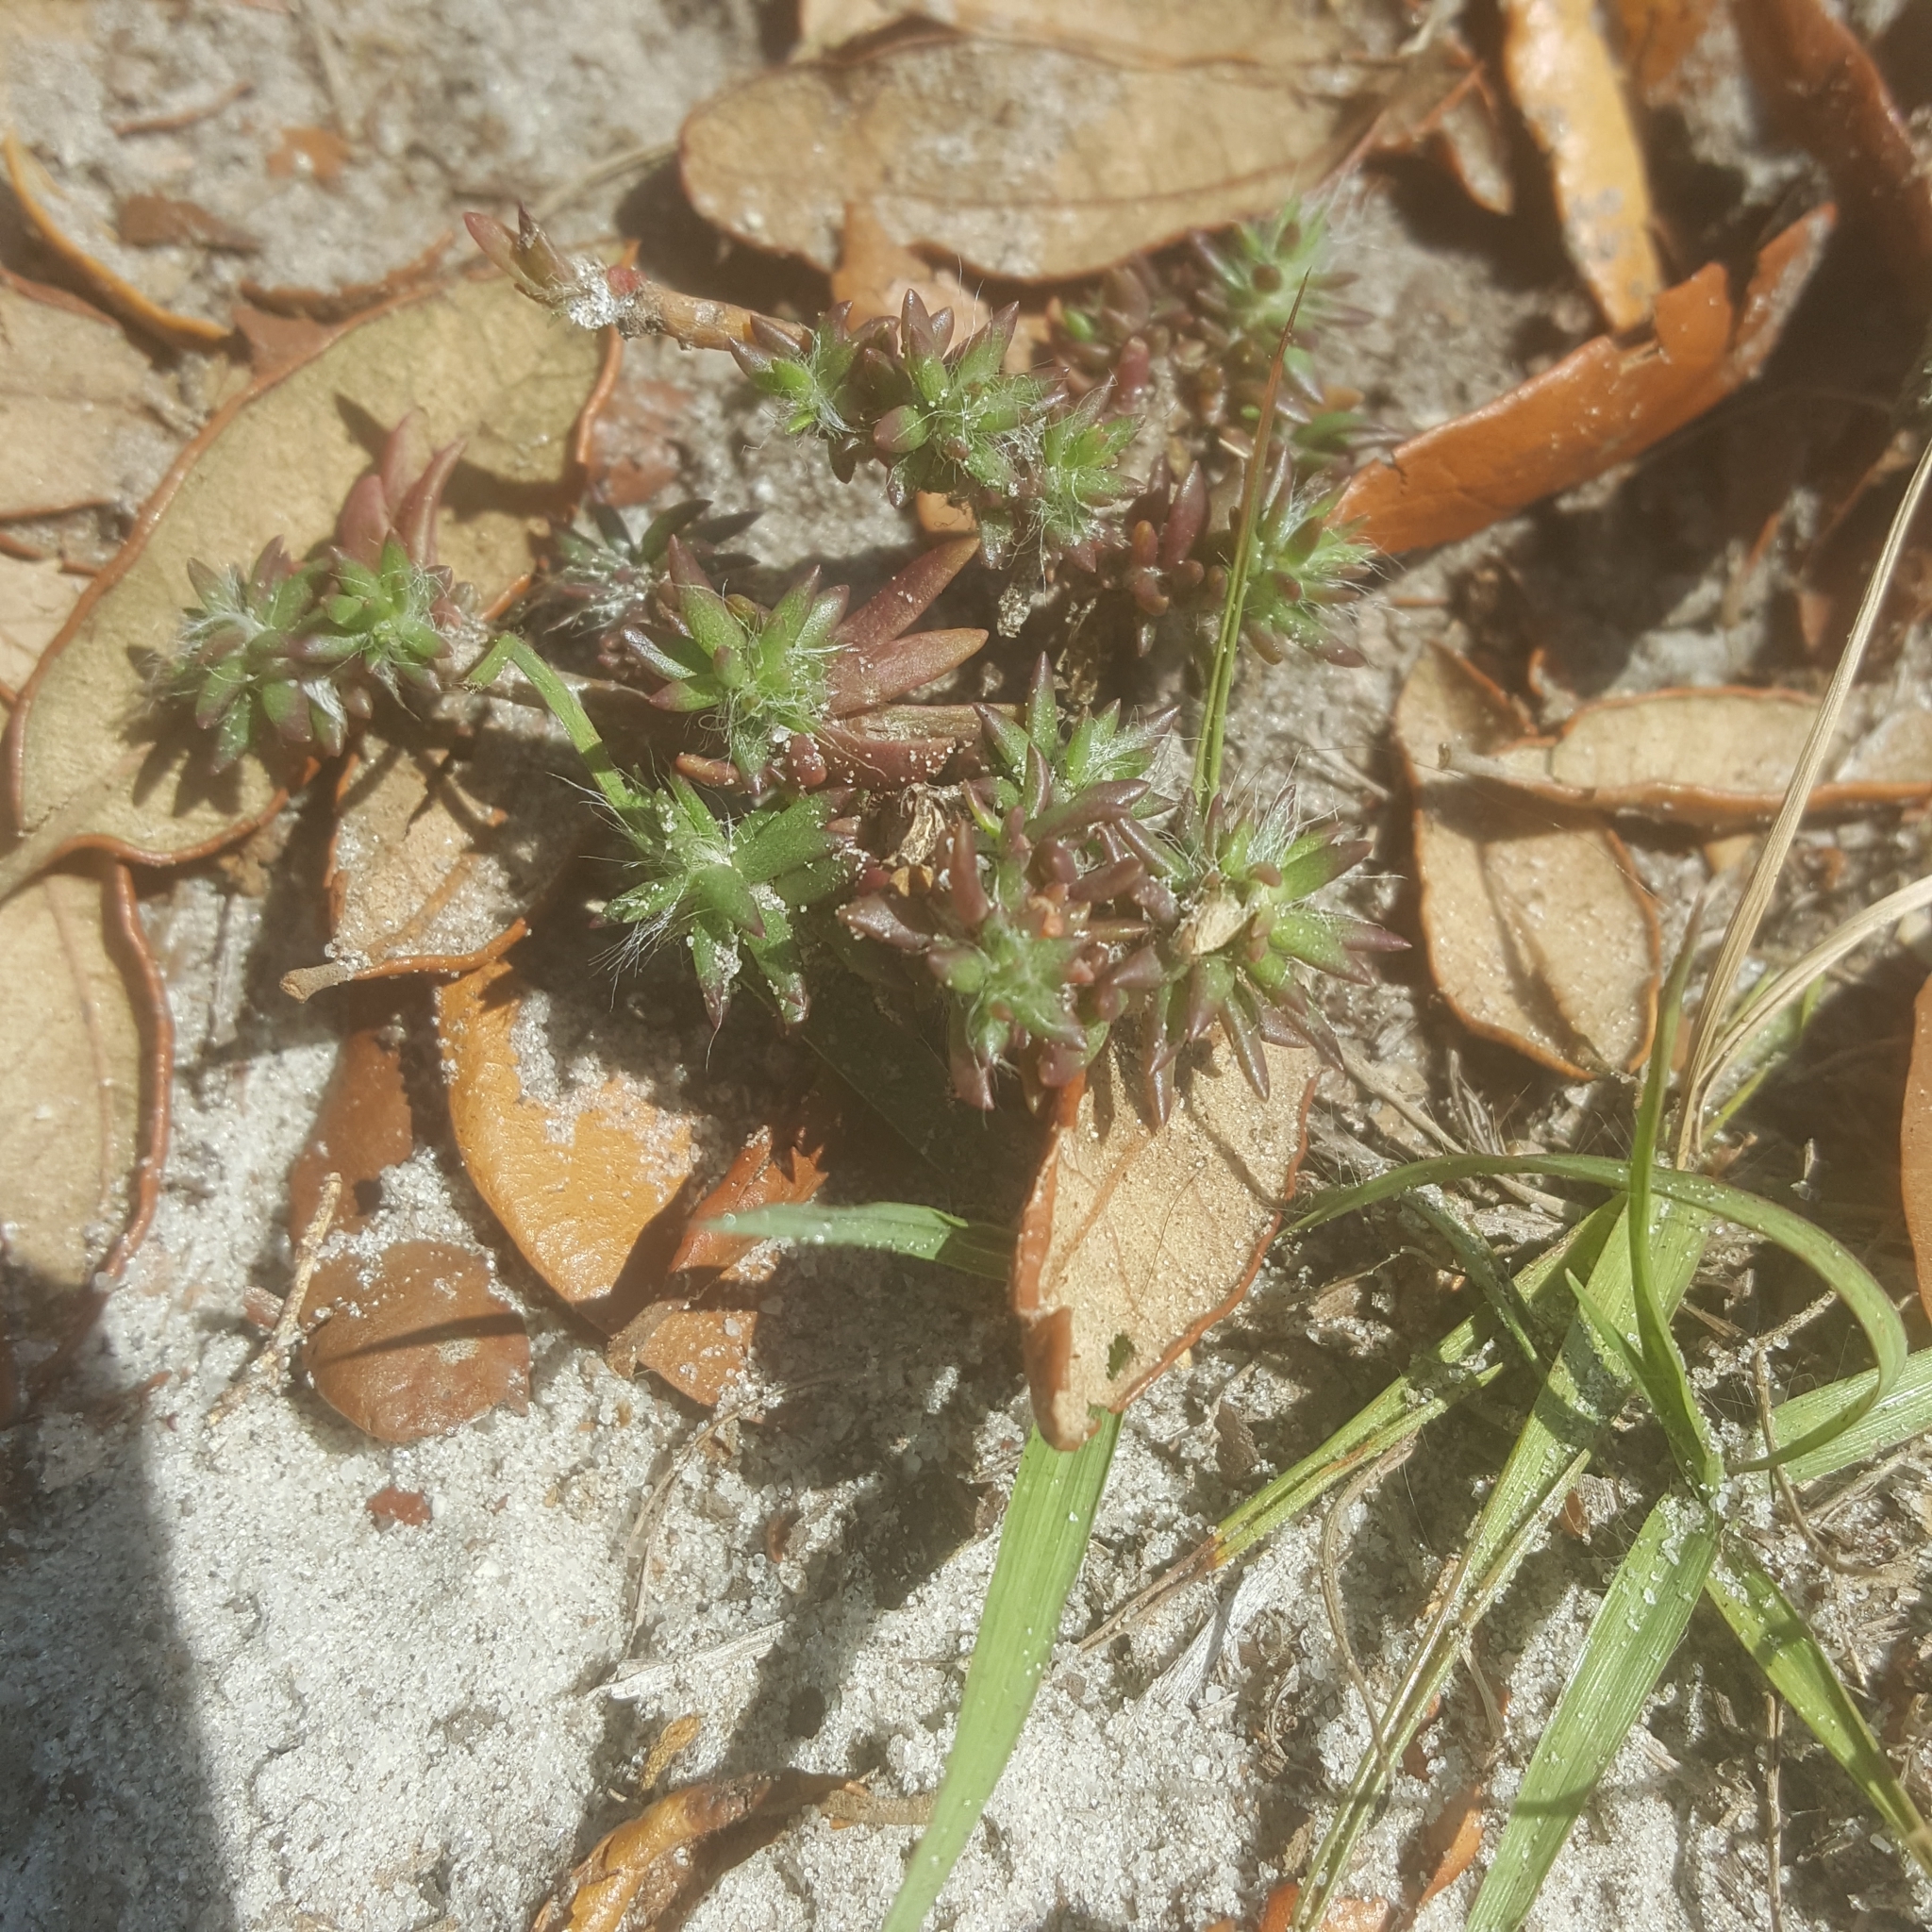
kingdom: Plantae
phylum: Tracheophyta
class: Magnoliopsida
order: Caryophyllales
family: Portulacaceae
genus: Portulaca
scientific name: Portulaca pilosa
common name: Kiss me quick
